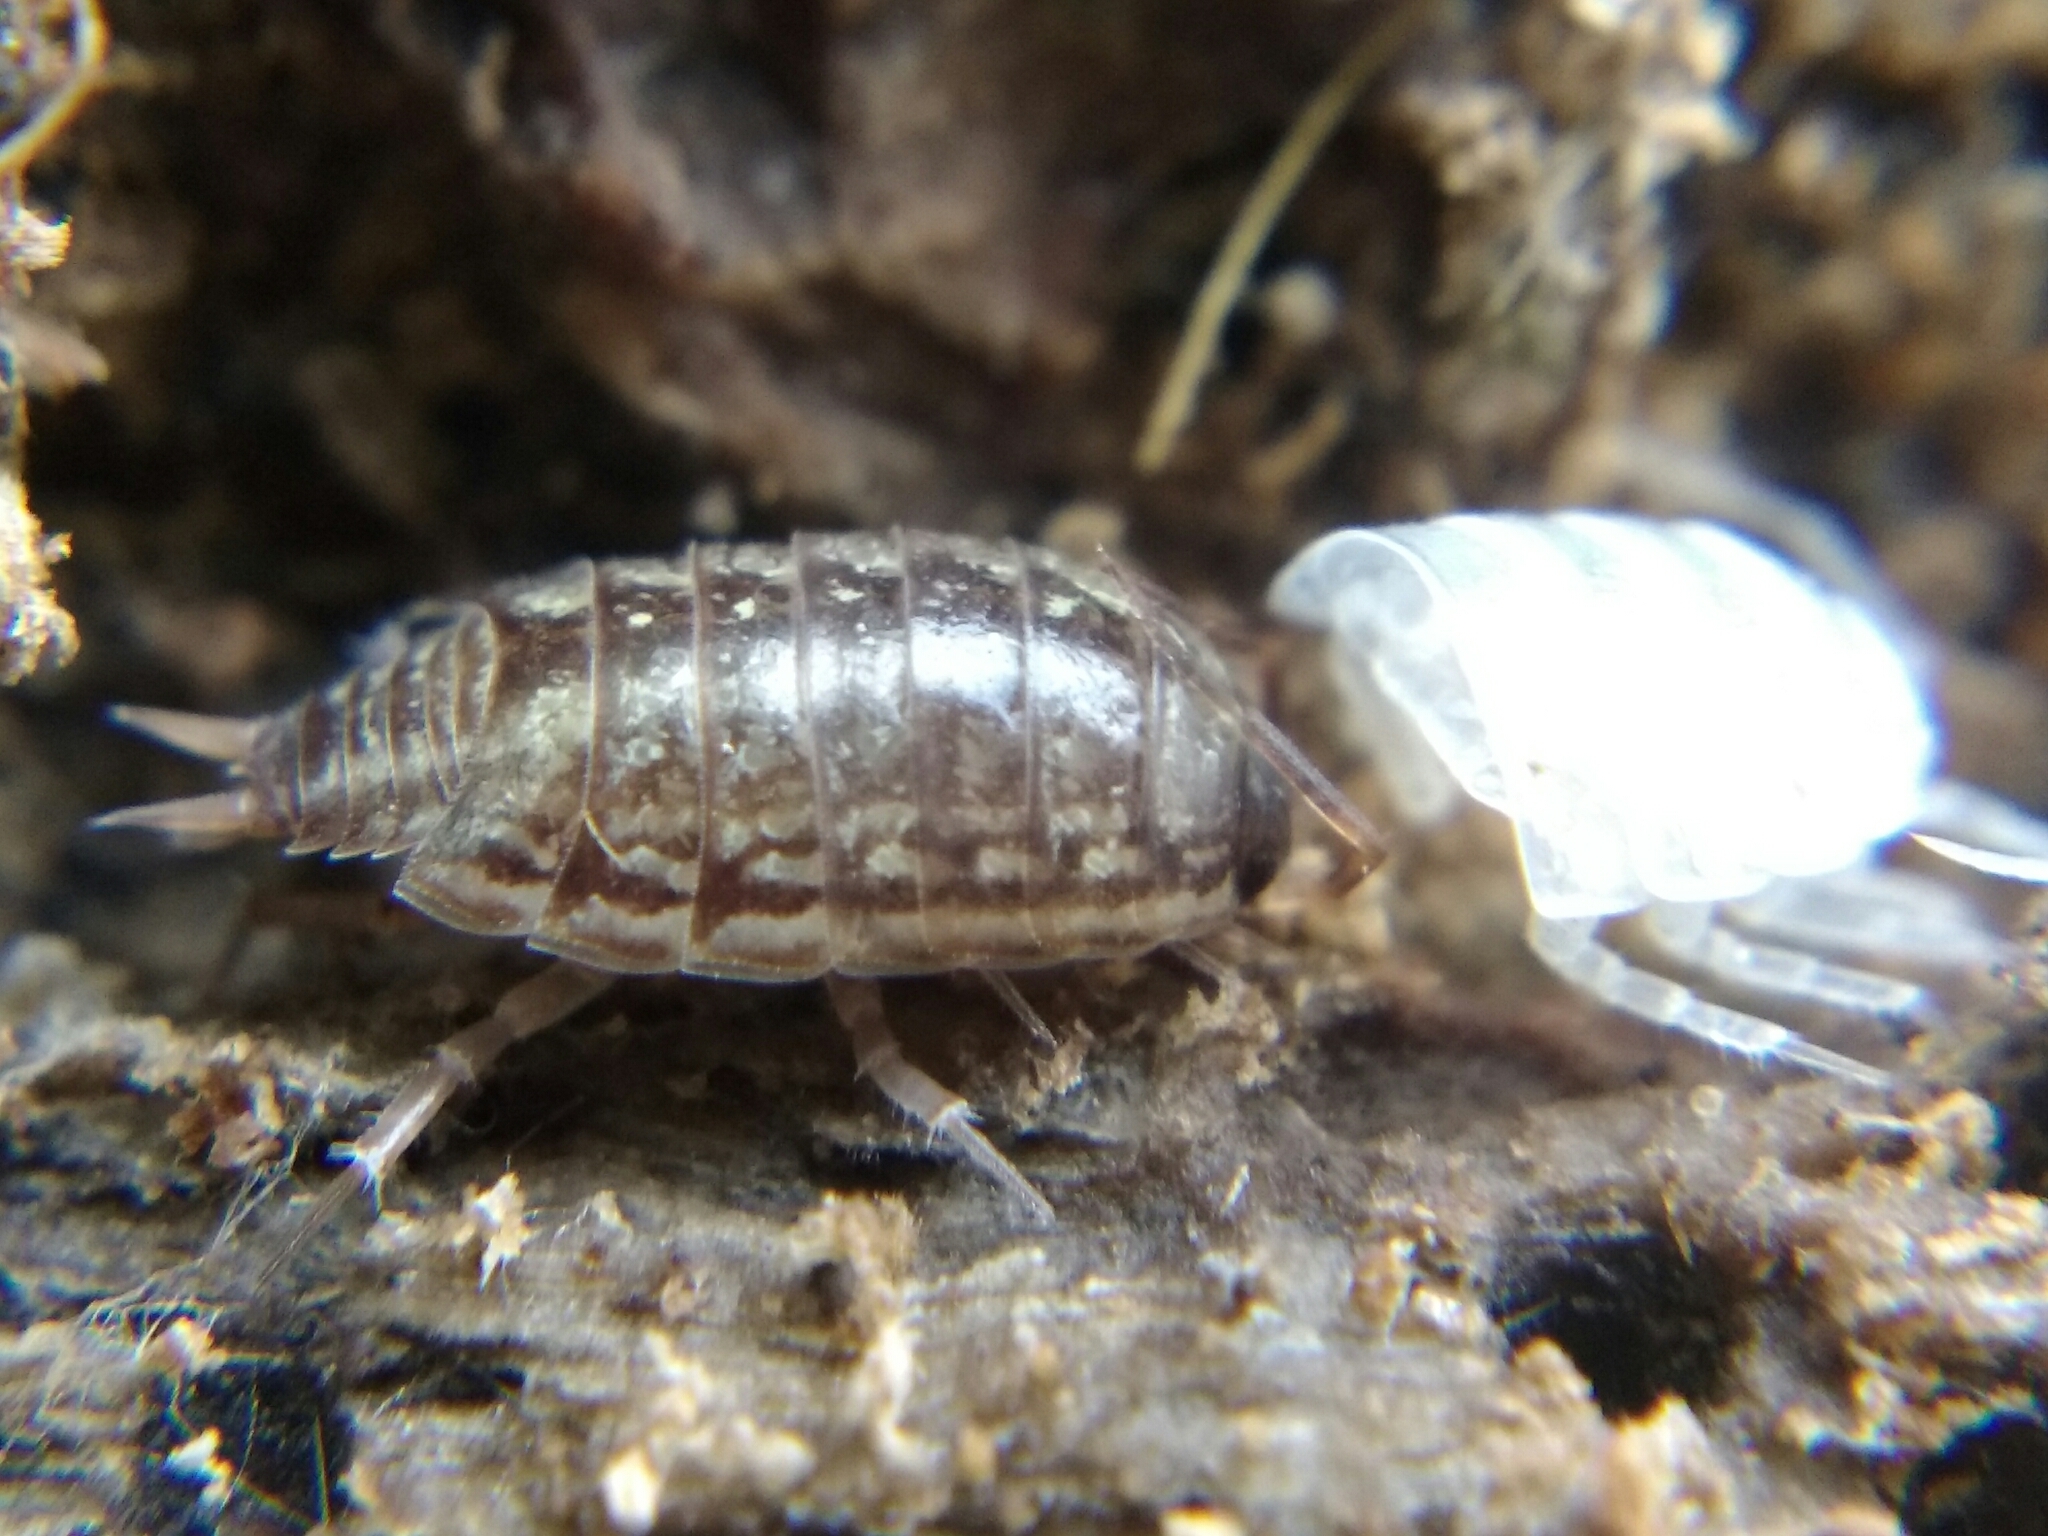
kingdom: Animalia
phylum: Arthropoda
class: Malacostraca
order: Isopoda
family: Philosciidae
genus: Philoscia
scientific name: Philoscia muscorum
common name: Common striped woodlouse
